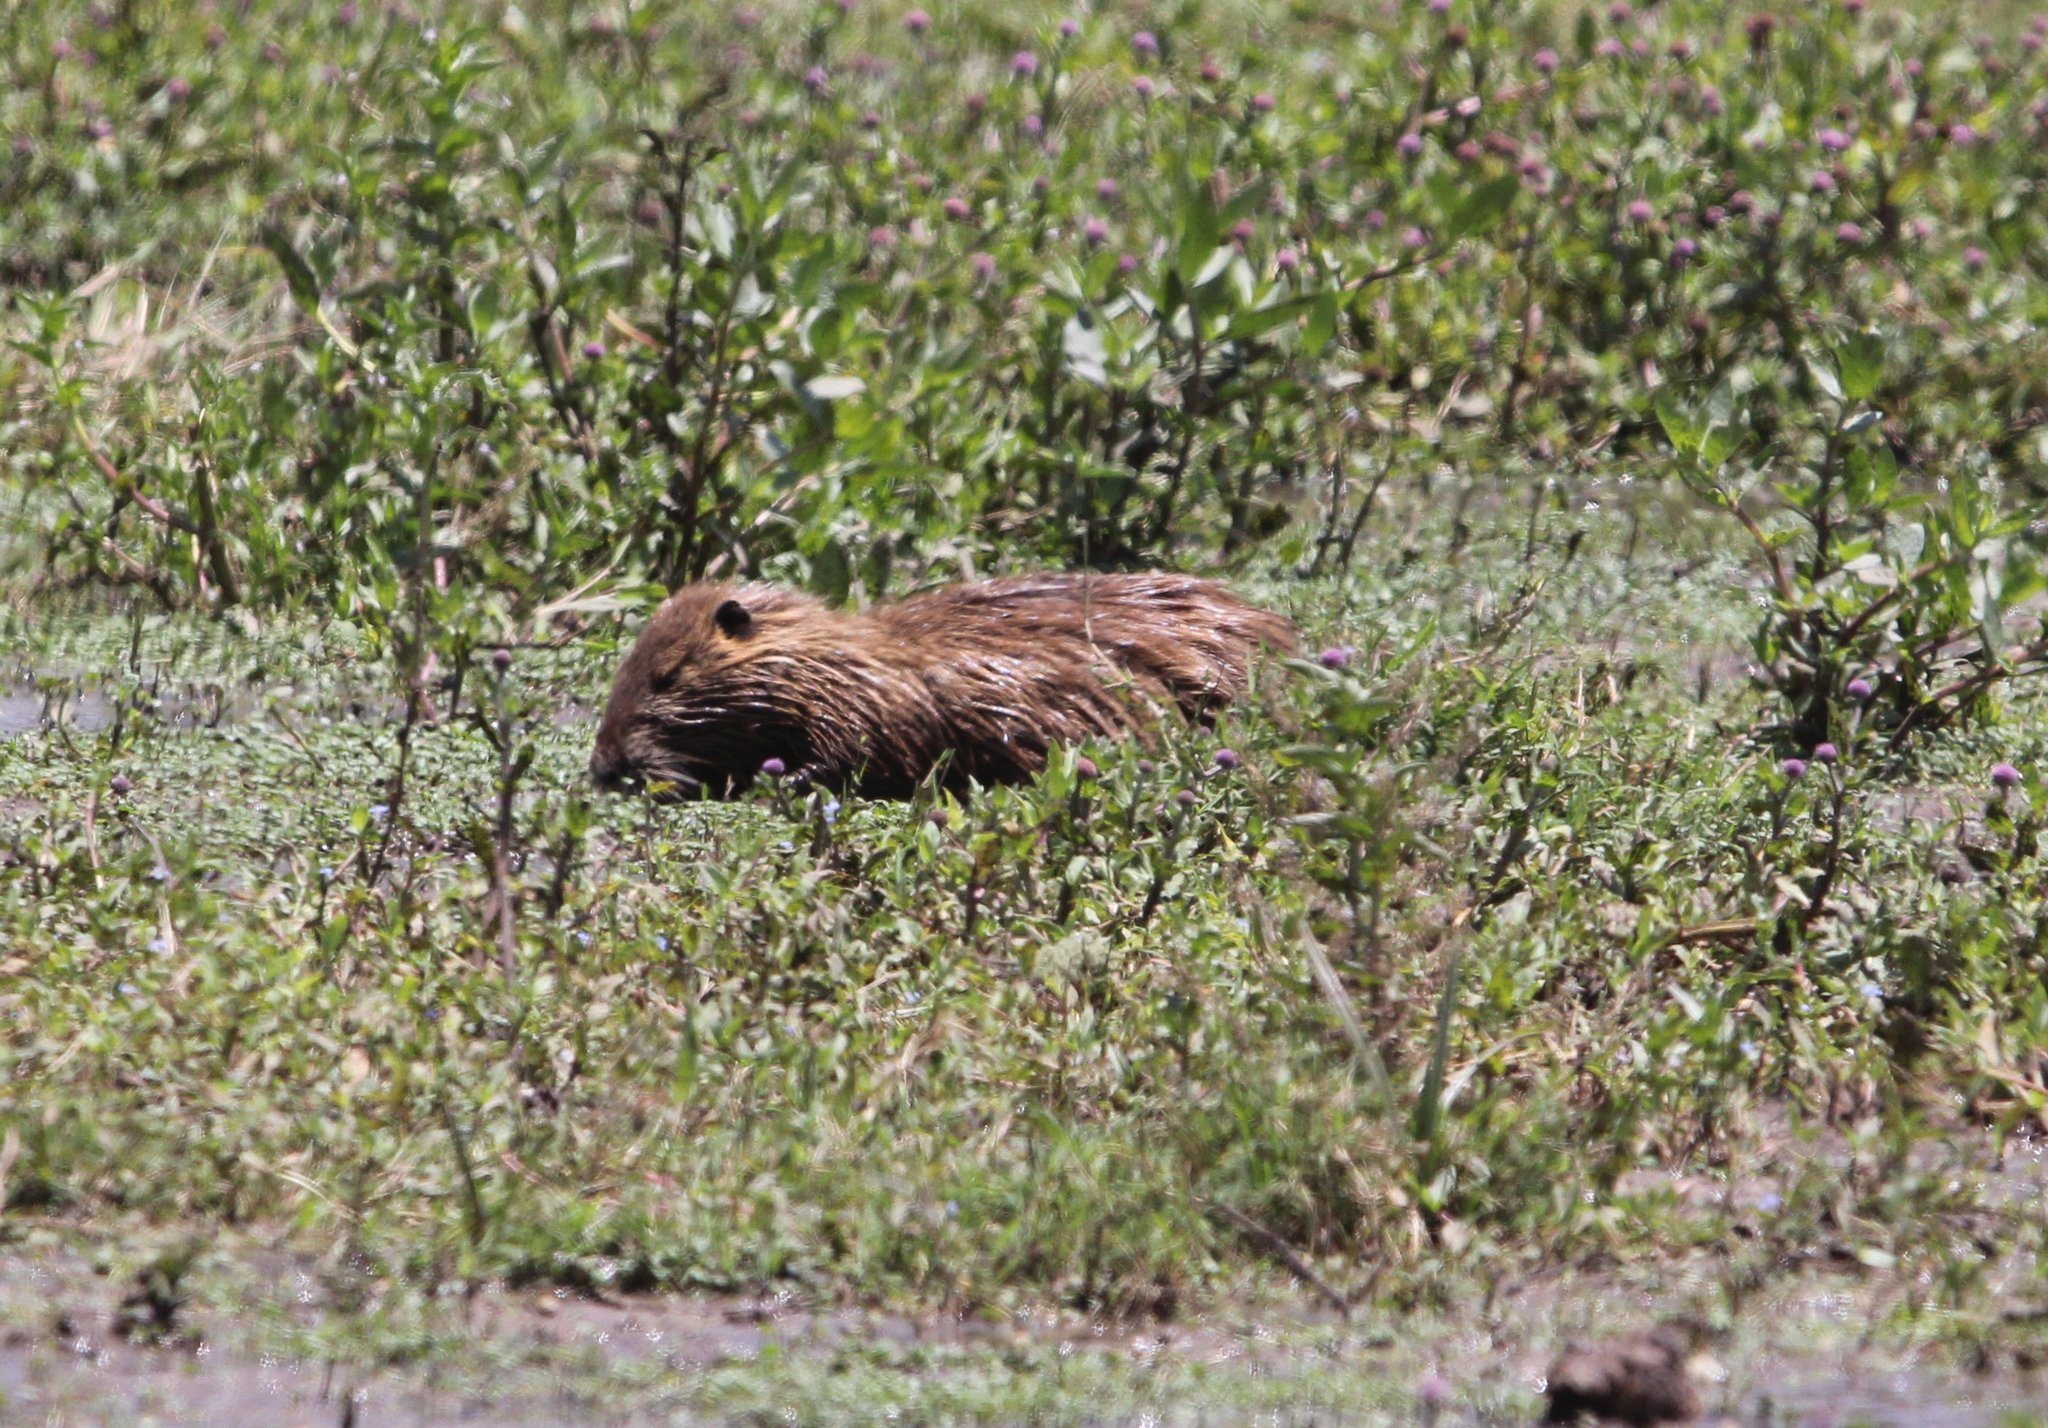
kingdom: Animalia
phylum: Chordata
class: Mammalia
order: Rodentia
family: Myocastoridae
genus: Myocastor
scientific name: Myocastor coypus
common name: Coypu
